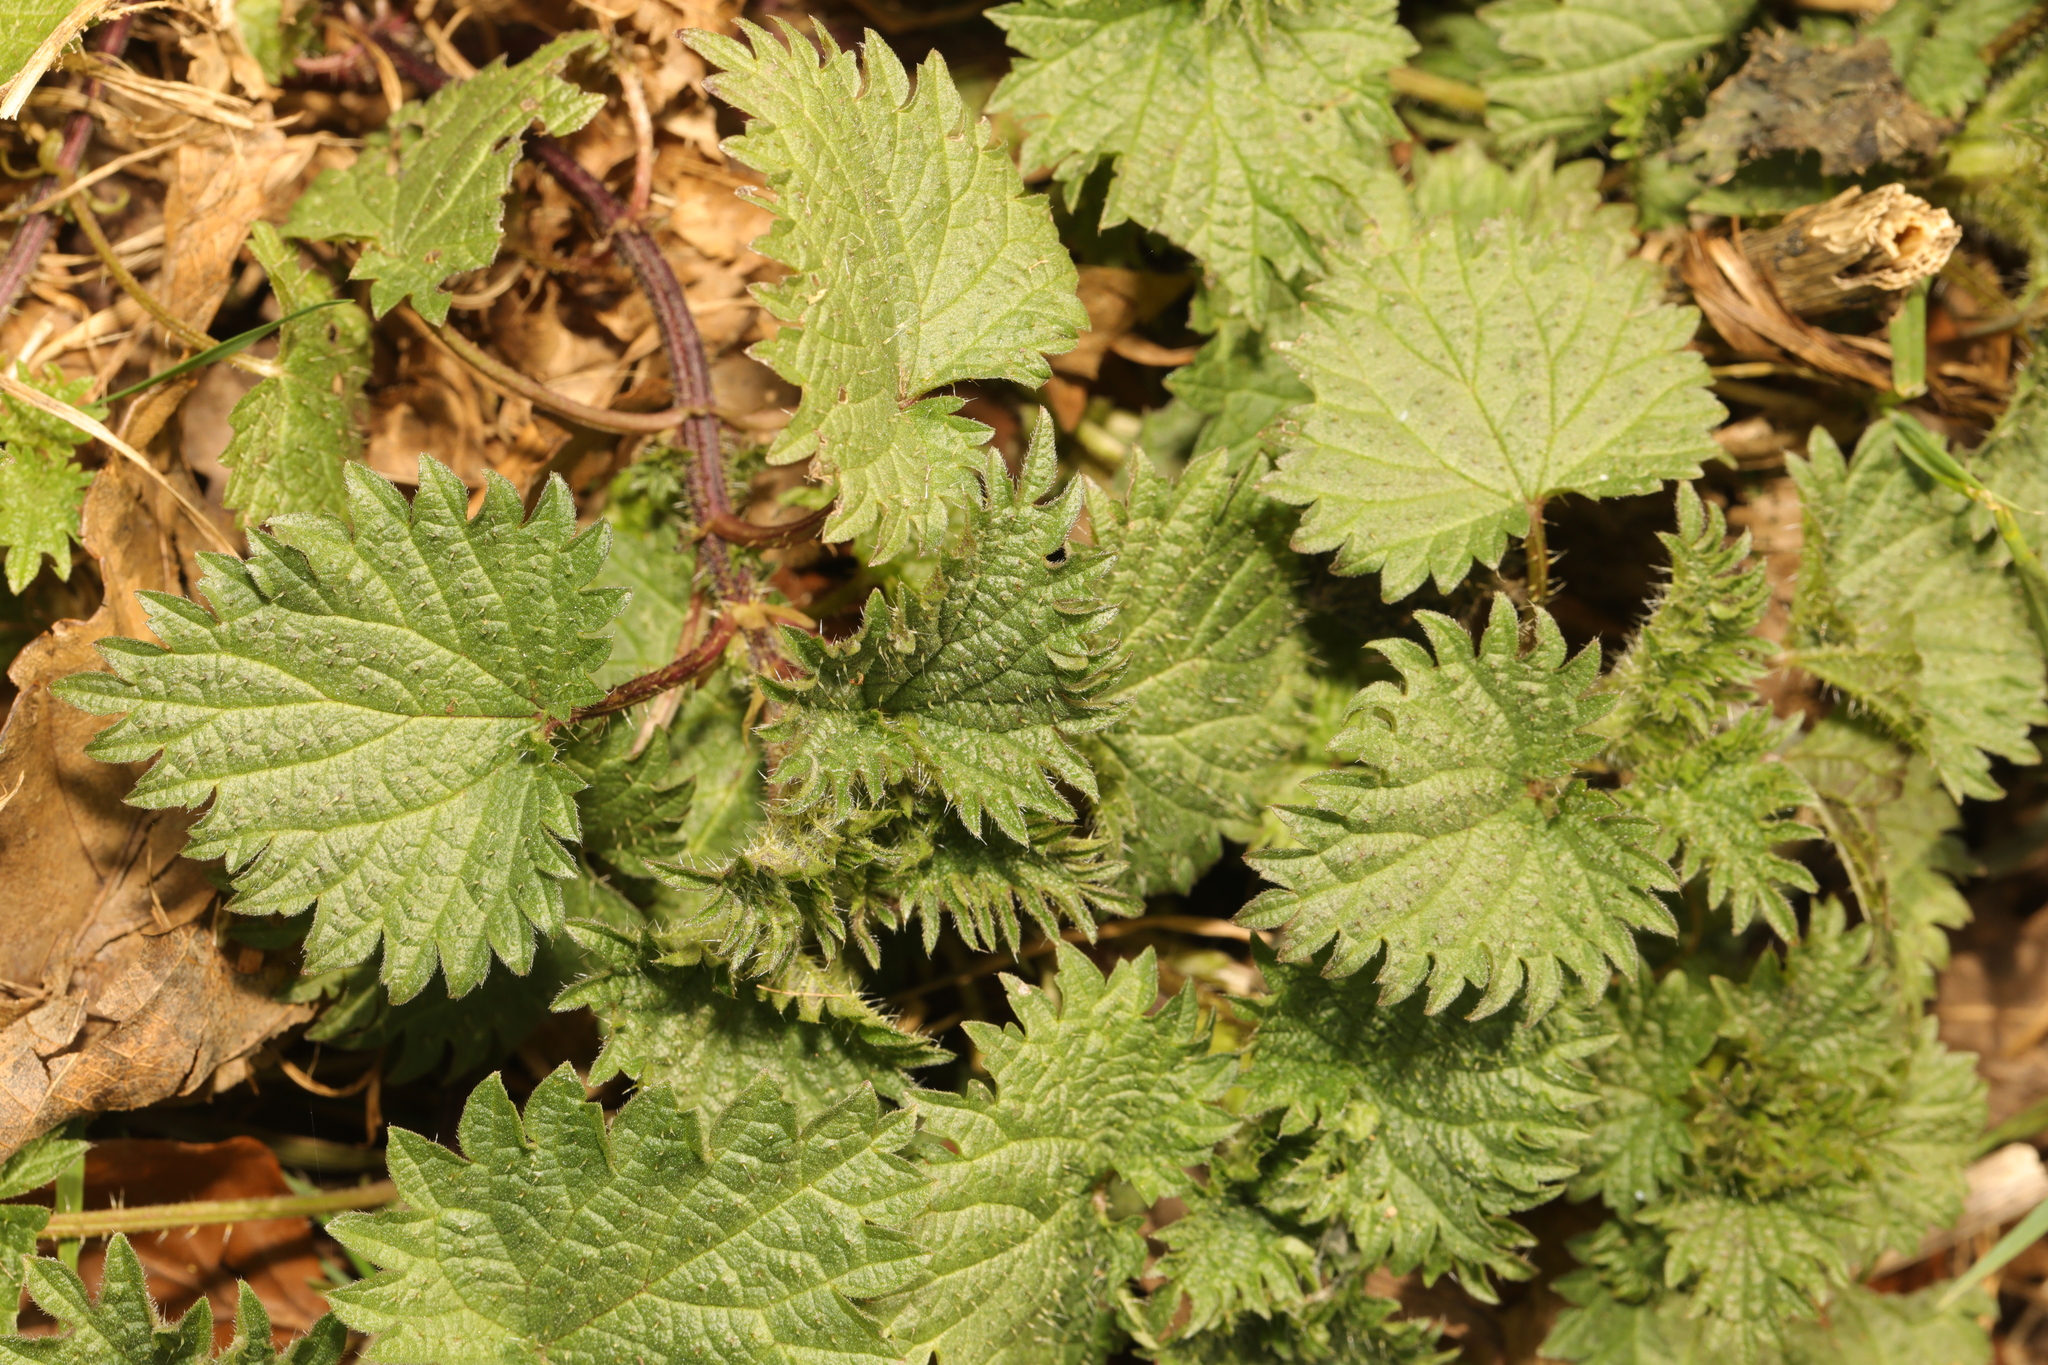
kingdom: Plantae
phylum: Tracheophyta
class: Magnoliopsida
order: Rosales
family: Urticaceae
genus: Urtica
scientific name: Urtica dioica
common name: Common nettle
